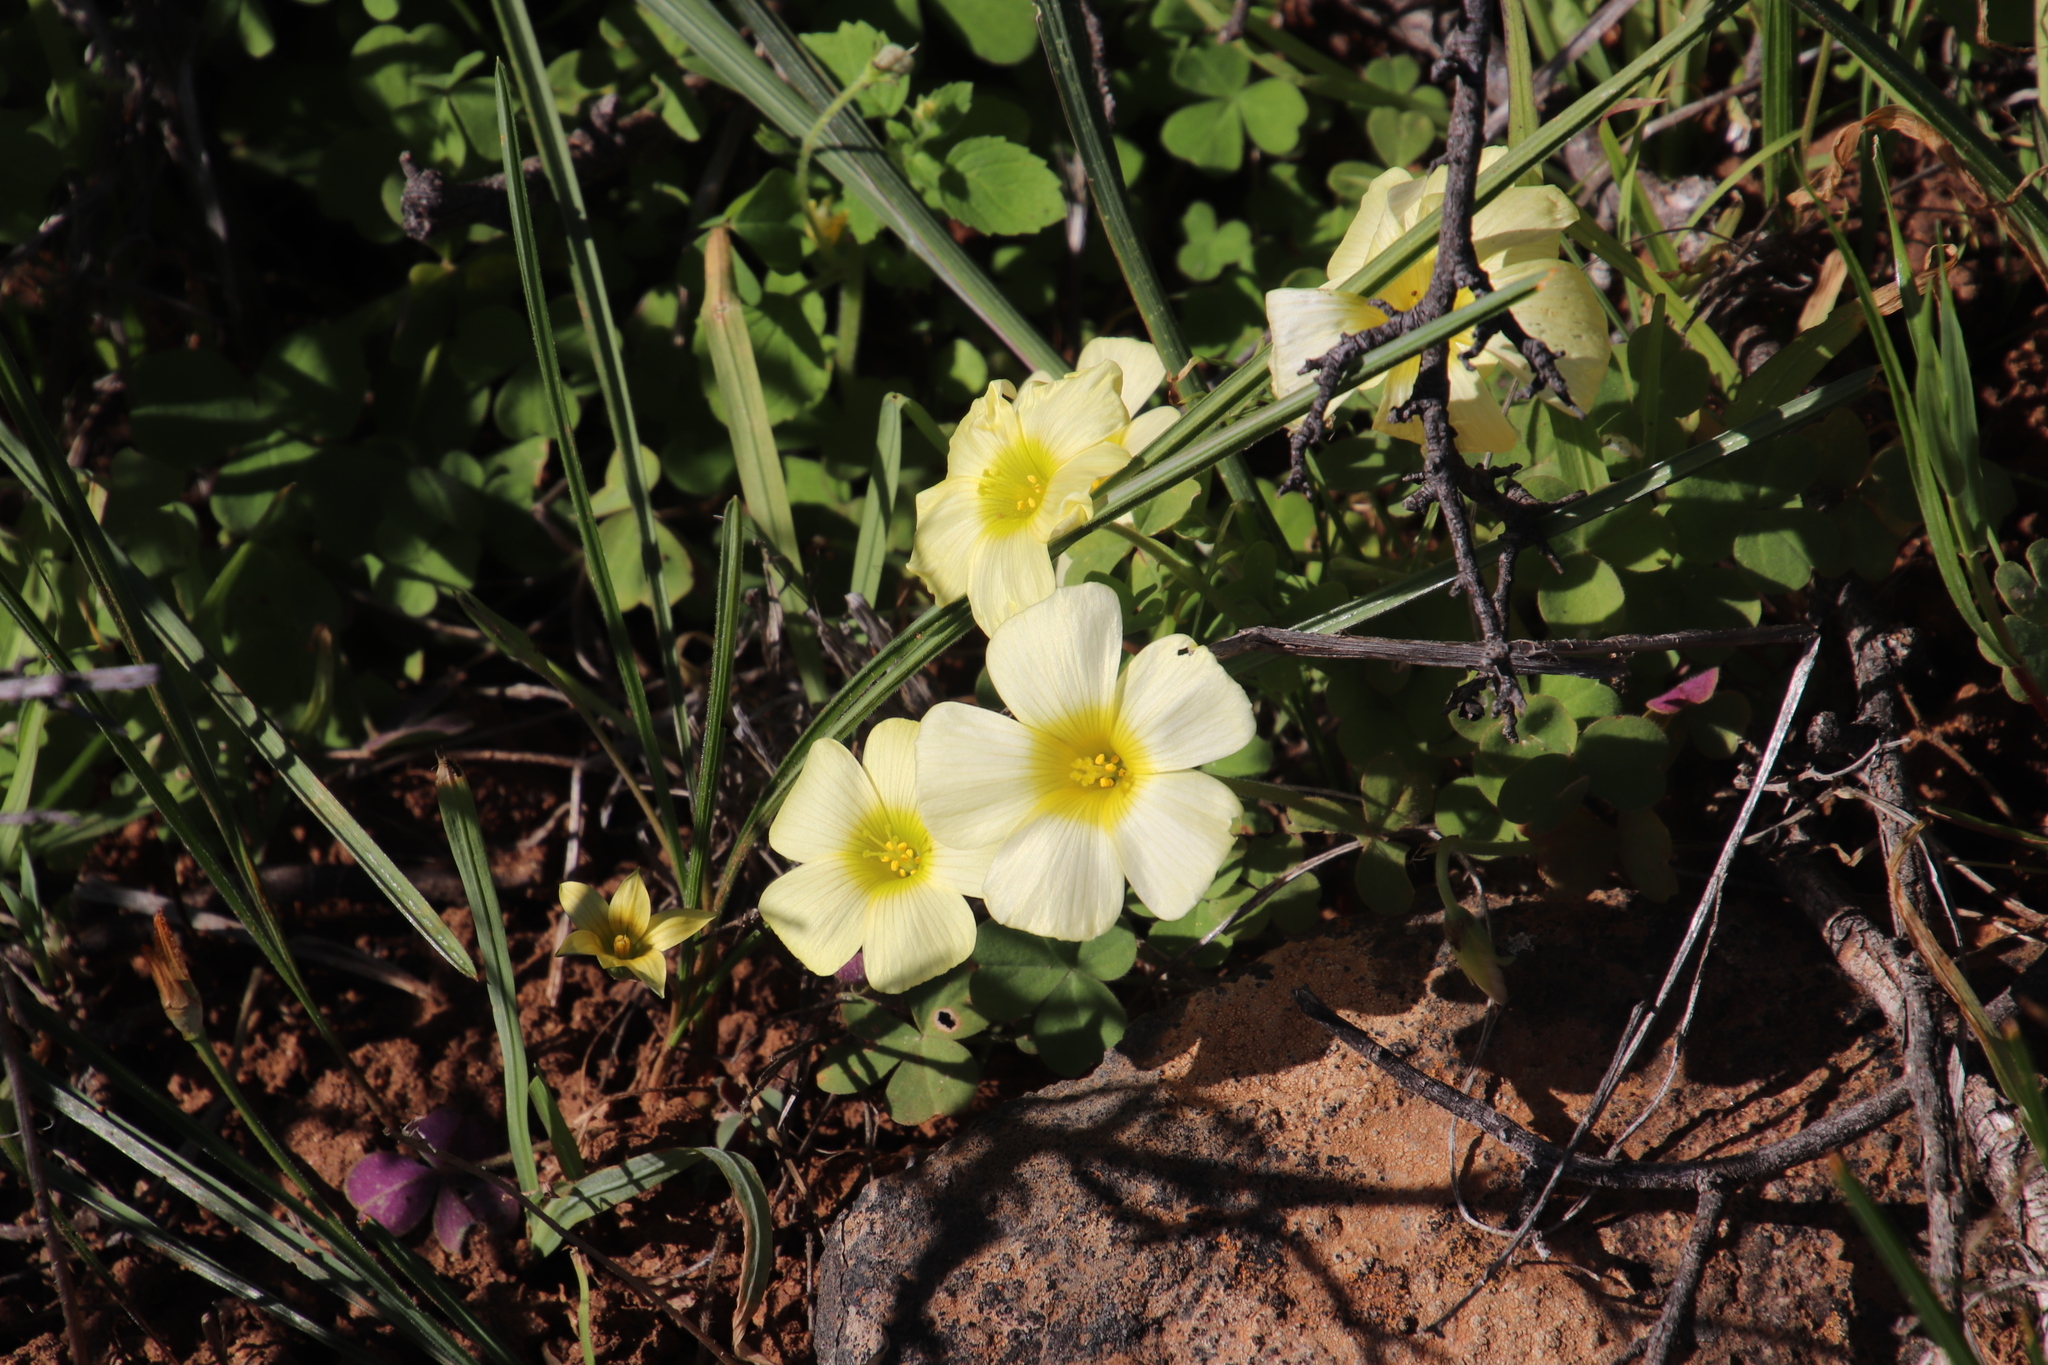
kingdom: Plantae
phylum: Tracheophyta
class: Magnoliopsida
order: Oxalidales
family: Oxalidaceae
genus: Oxalis
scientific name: Oxalis obtusa
